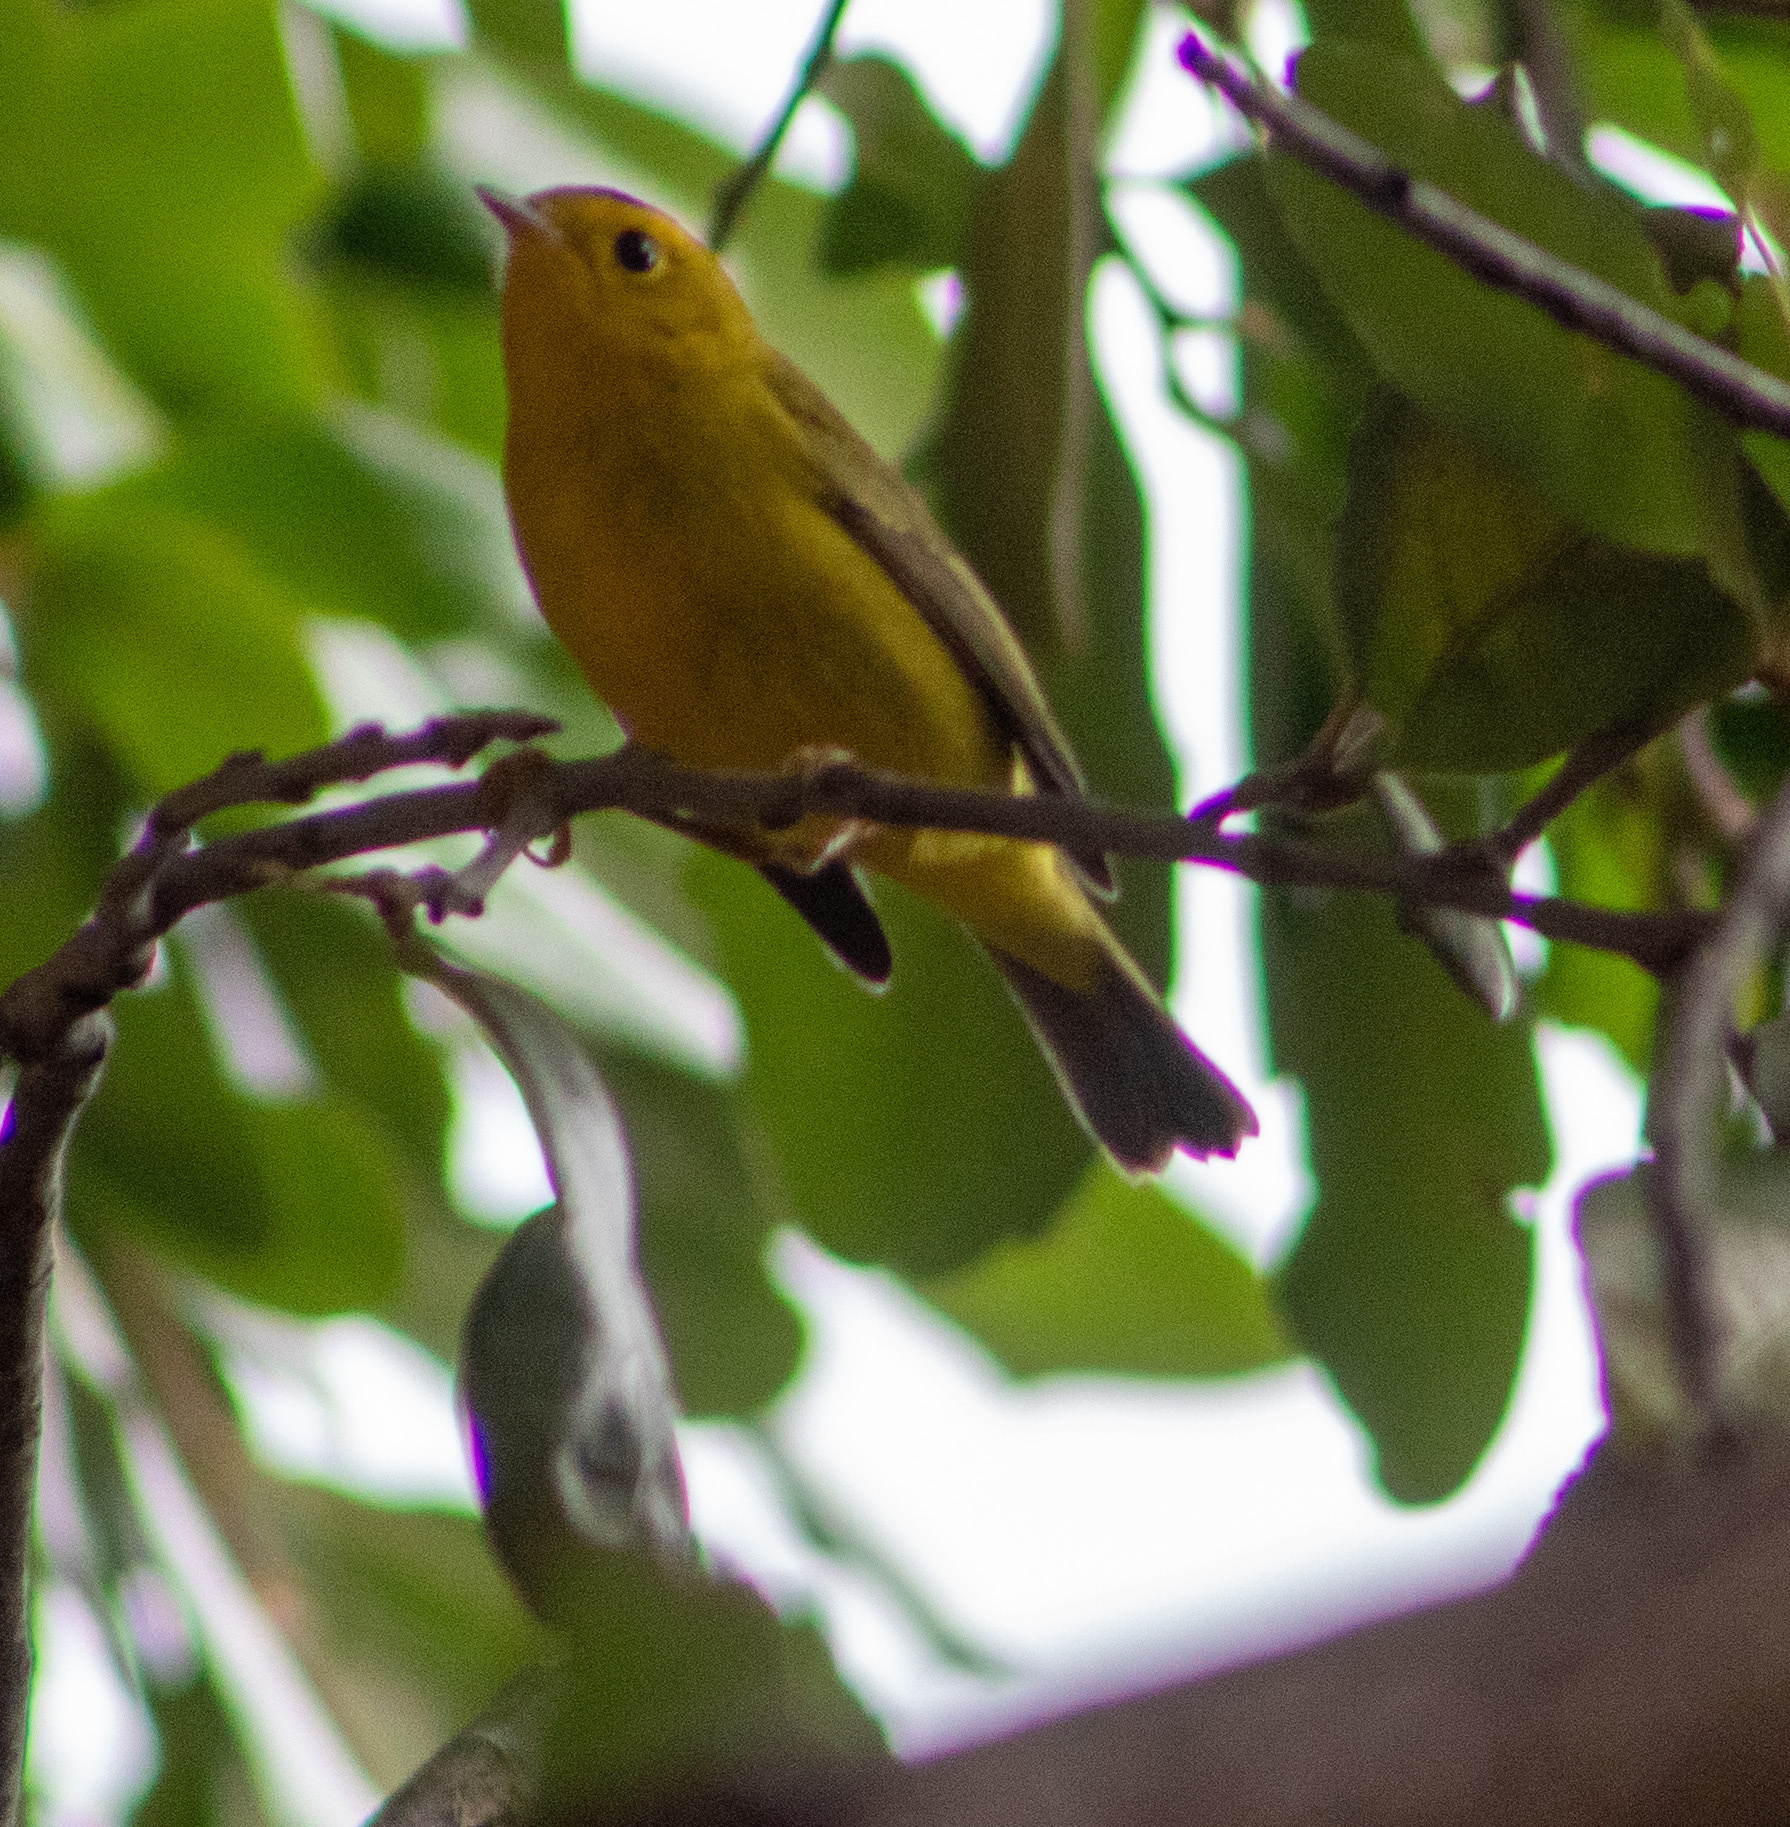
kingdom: Animalia
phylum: Chordata
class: Aves
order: Passeriformes
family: Parulidae
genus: Cardellina
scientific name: Cardellina pusilla
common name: Wilson's warbler
